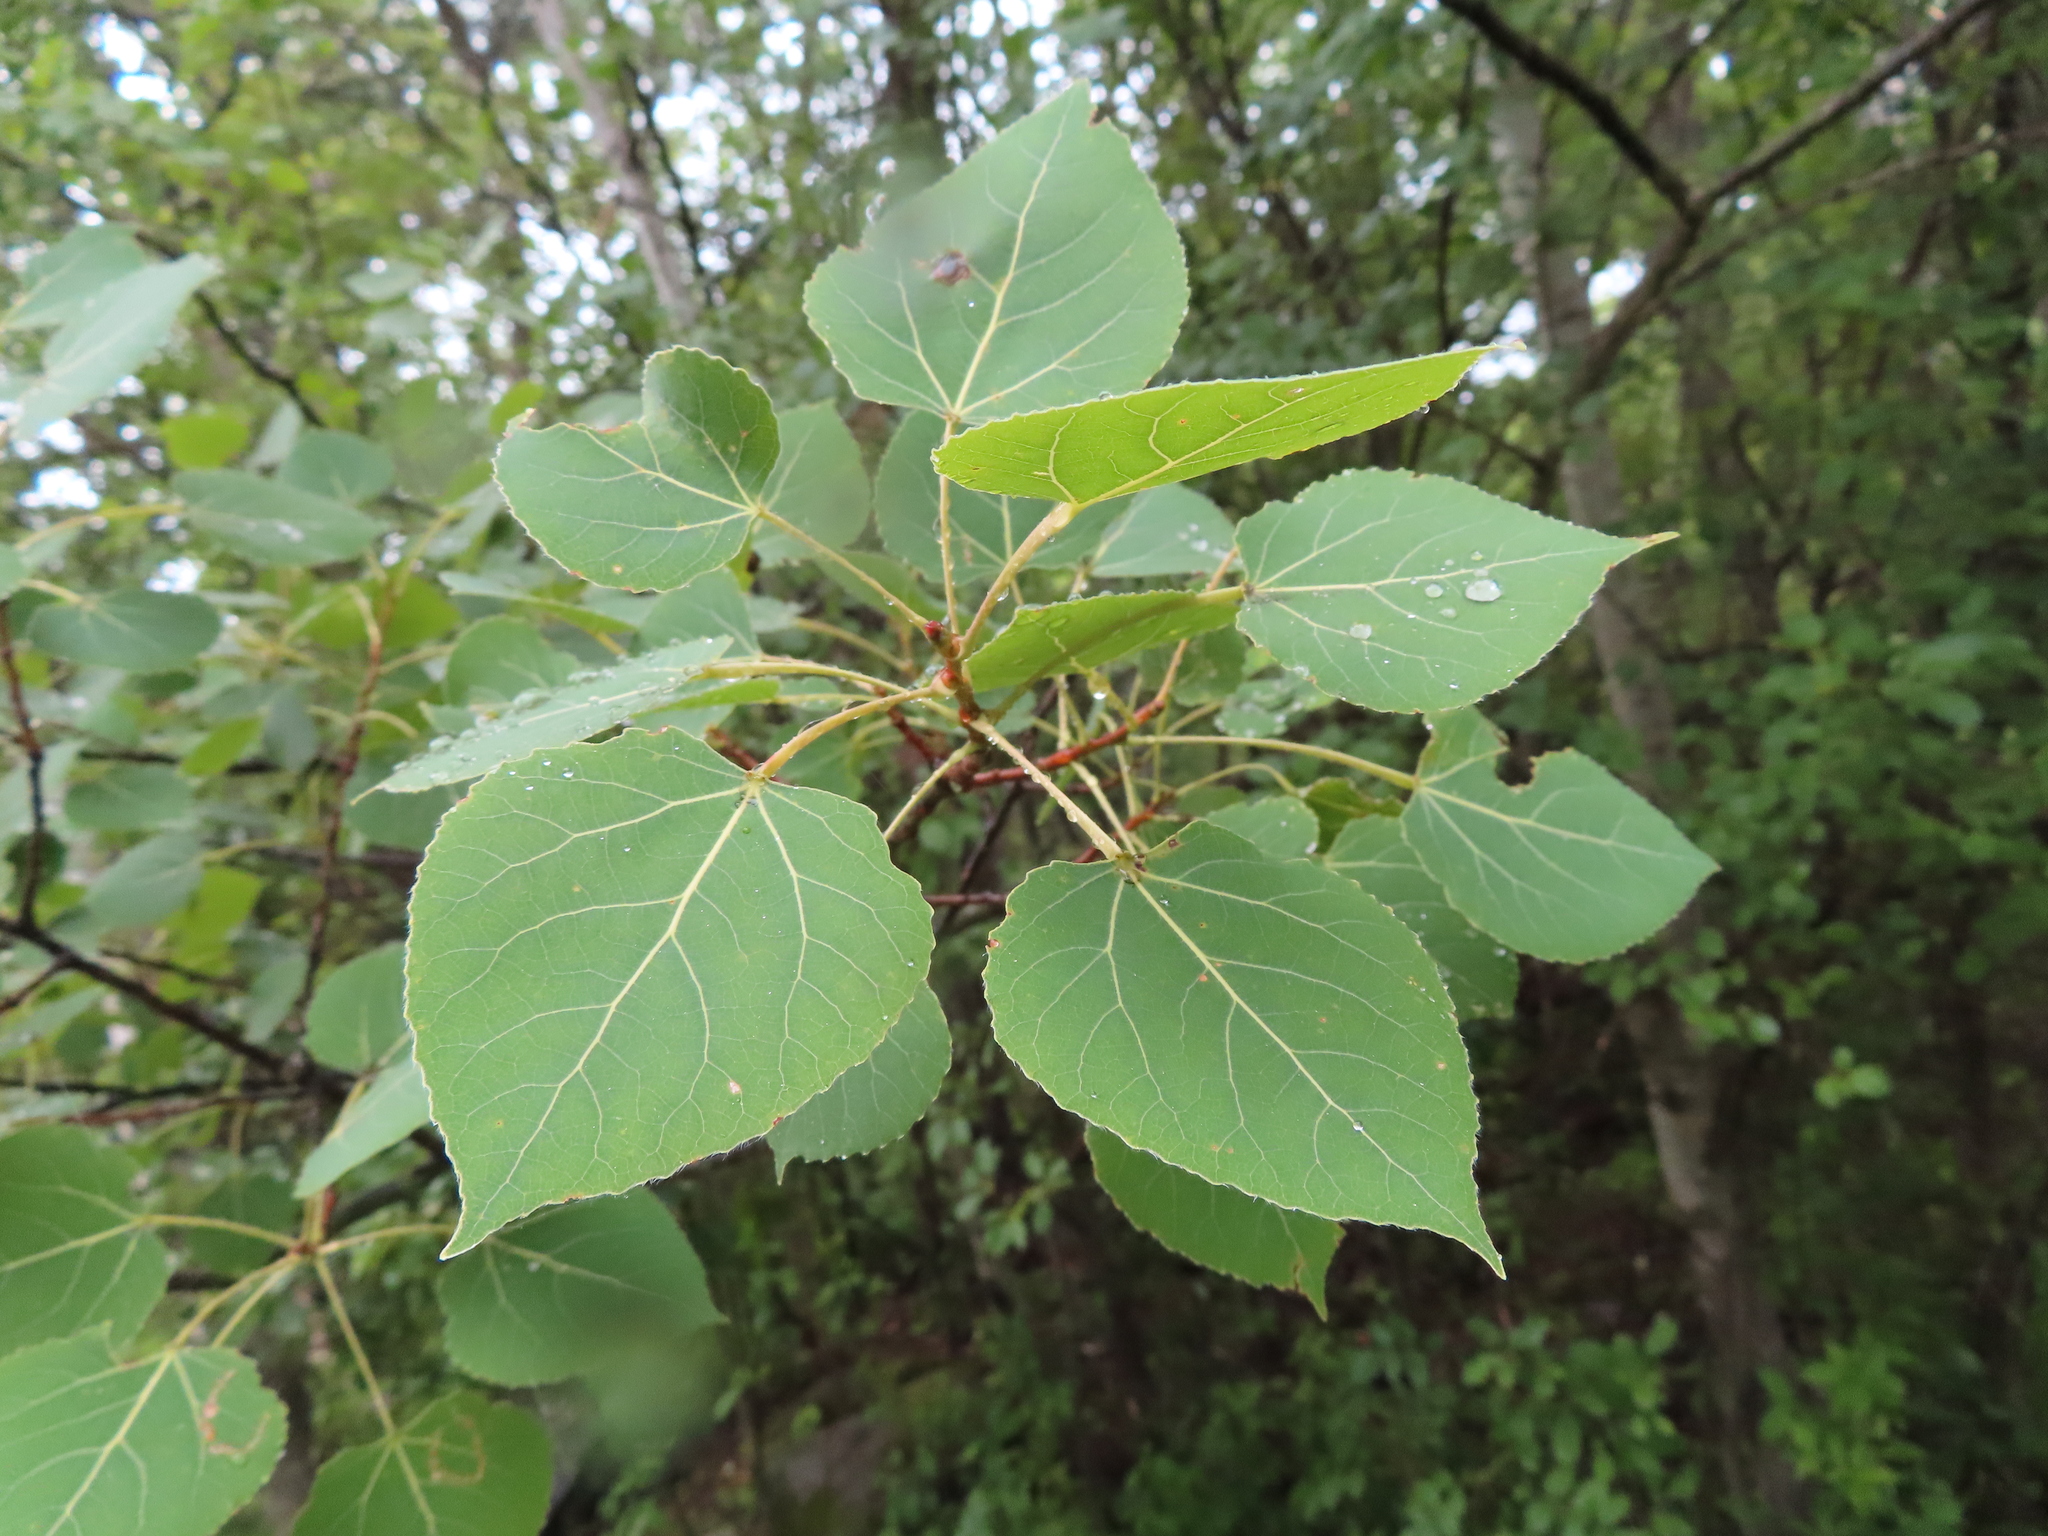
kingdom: Plantae
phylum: Tracheophyta
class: Magnoliopsida
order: Malpighiales
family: Salicaceae
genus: Populus
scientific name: Populus tremuloides
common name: Quaking aspen
